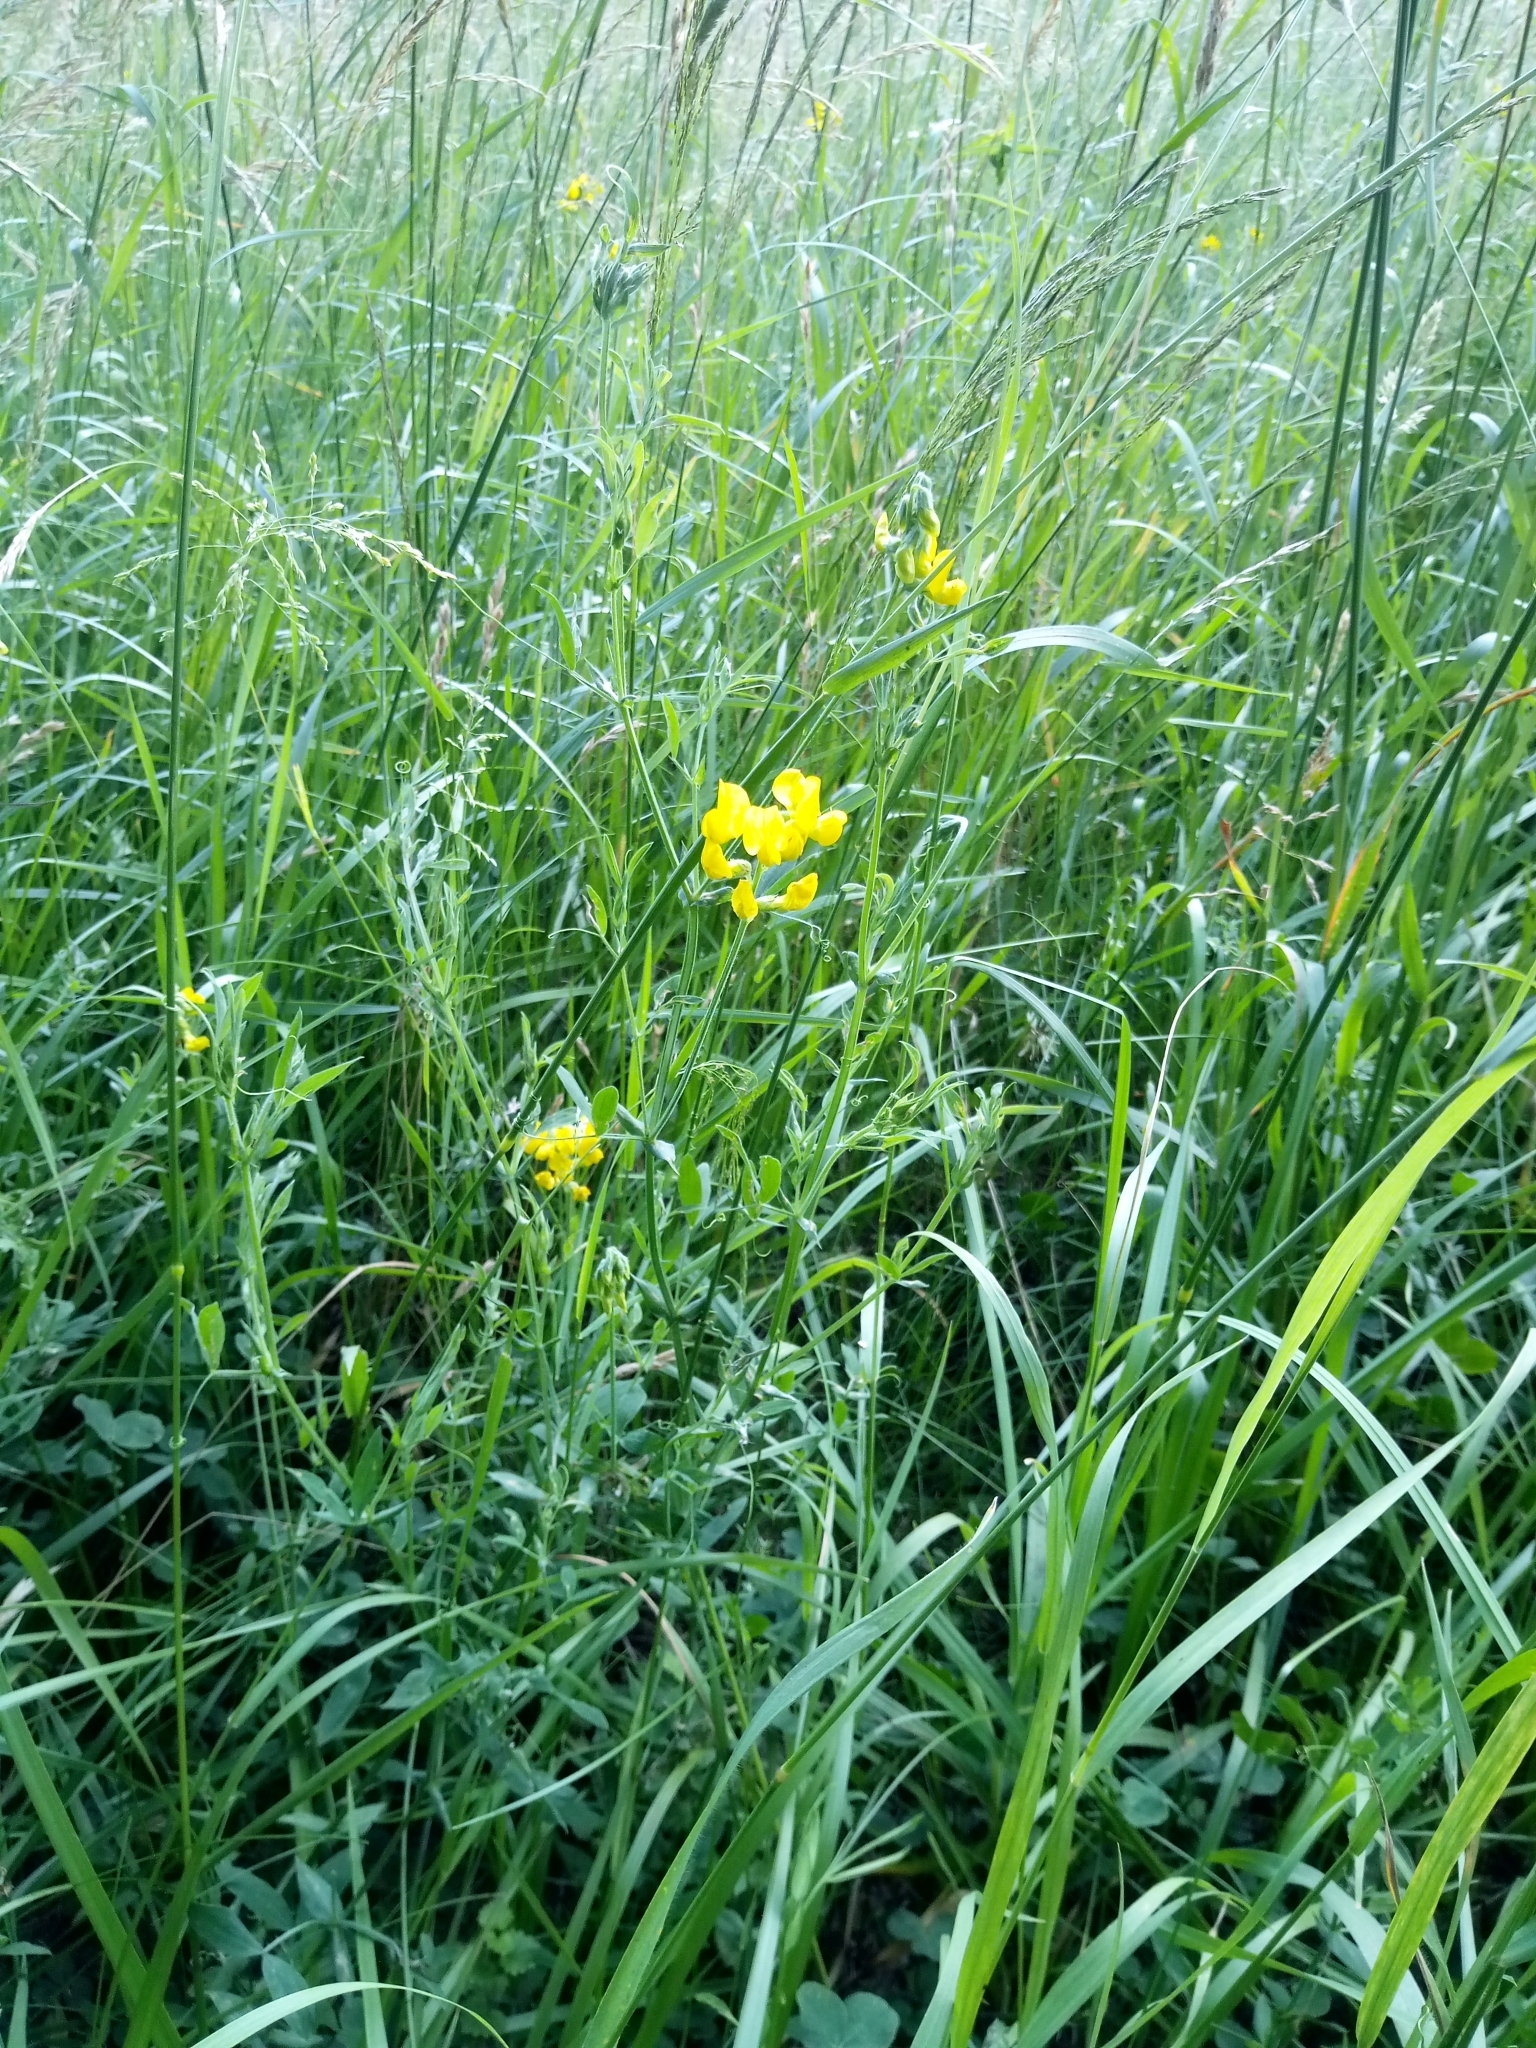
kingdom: Plantae
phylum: Tracheophyta
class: Magnoliopsida
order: Fabales
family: Fabaceae
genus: Lathyrus
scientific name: Lathyrus pratensis
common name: Meadow vetchling
